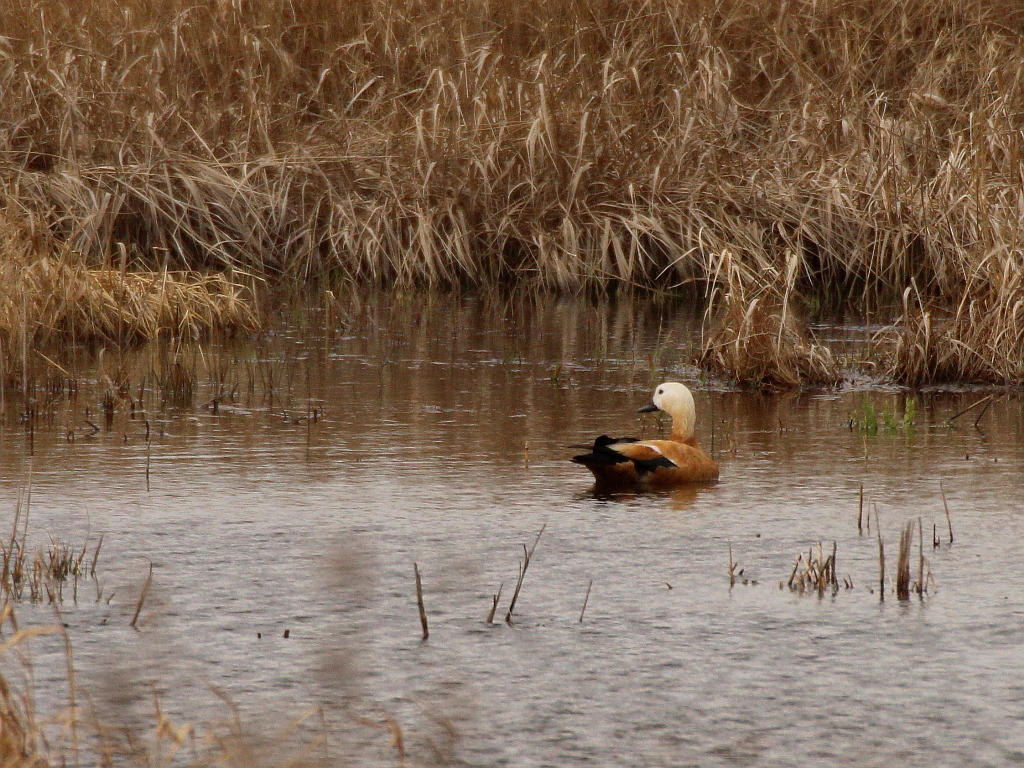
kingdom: Animalia
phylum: Chordata
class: Aves
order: Anseriformes
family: Anatidae
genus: Tadorna
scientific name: Tadorna ferruginea
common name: Ruddy shelduck
